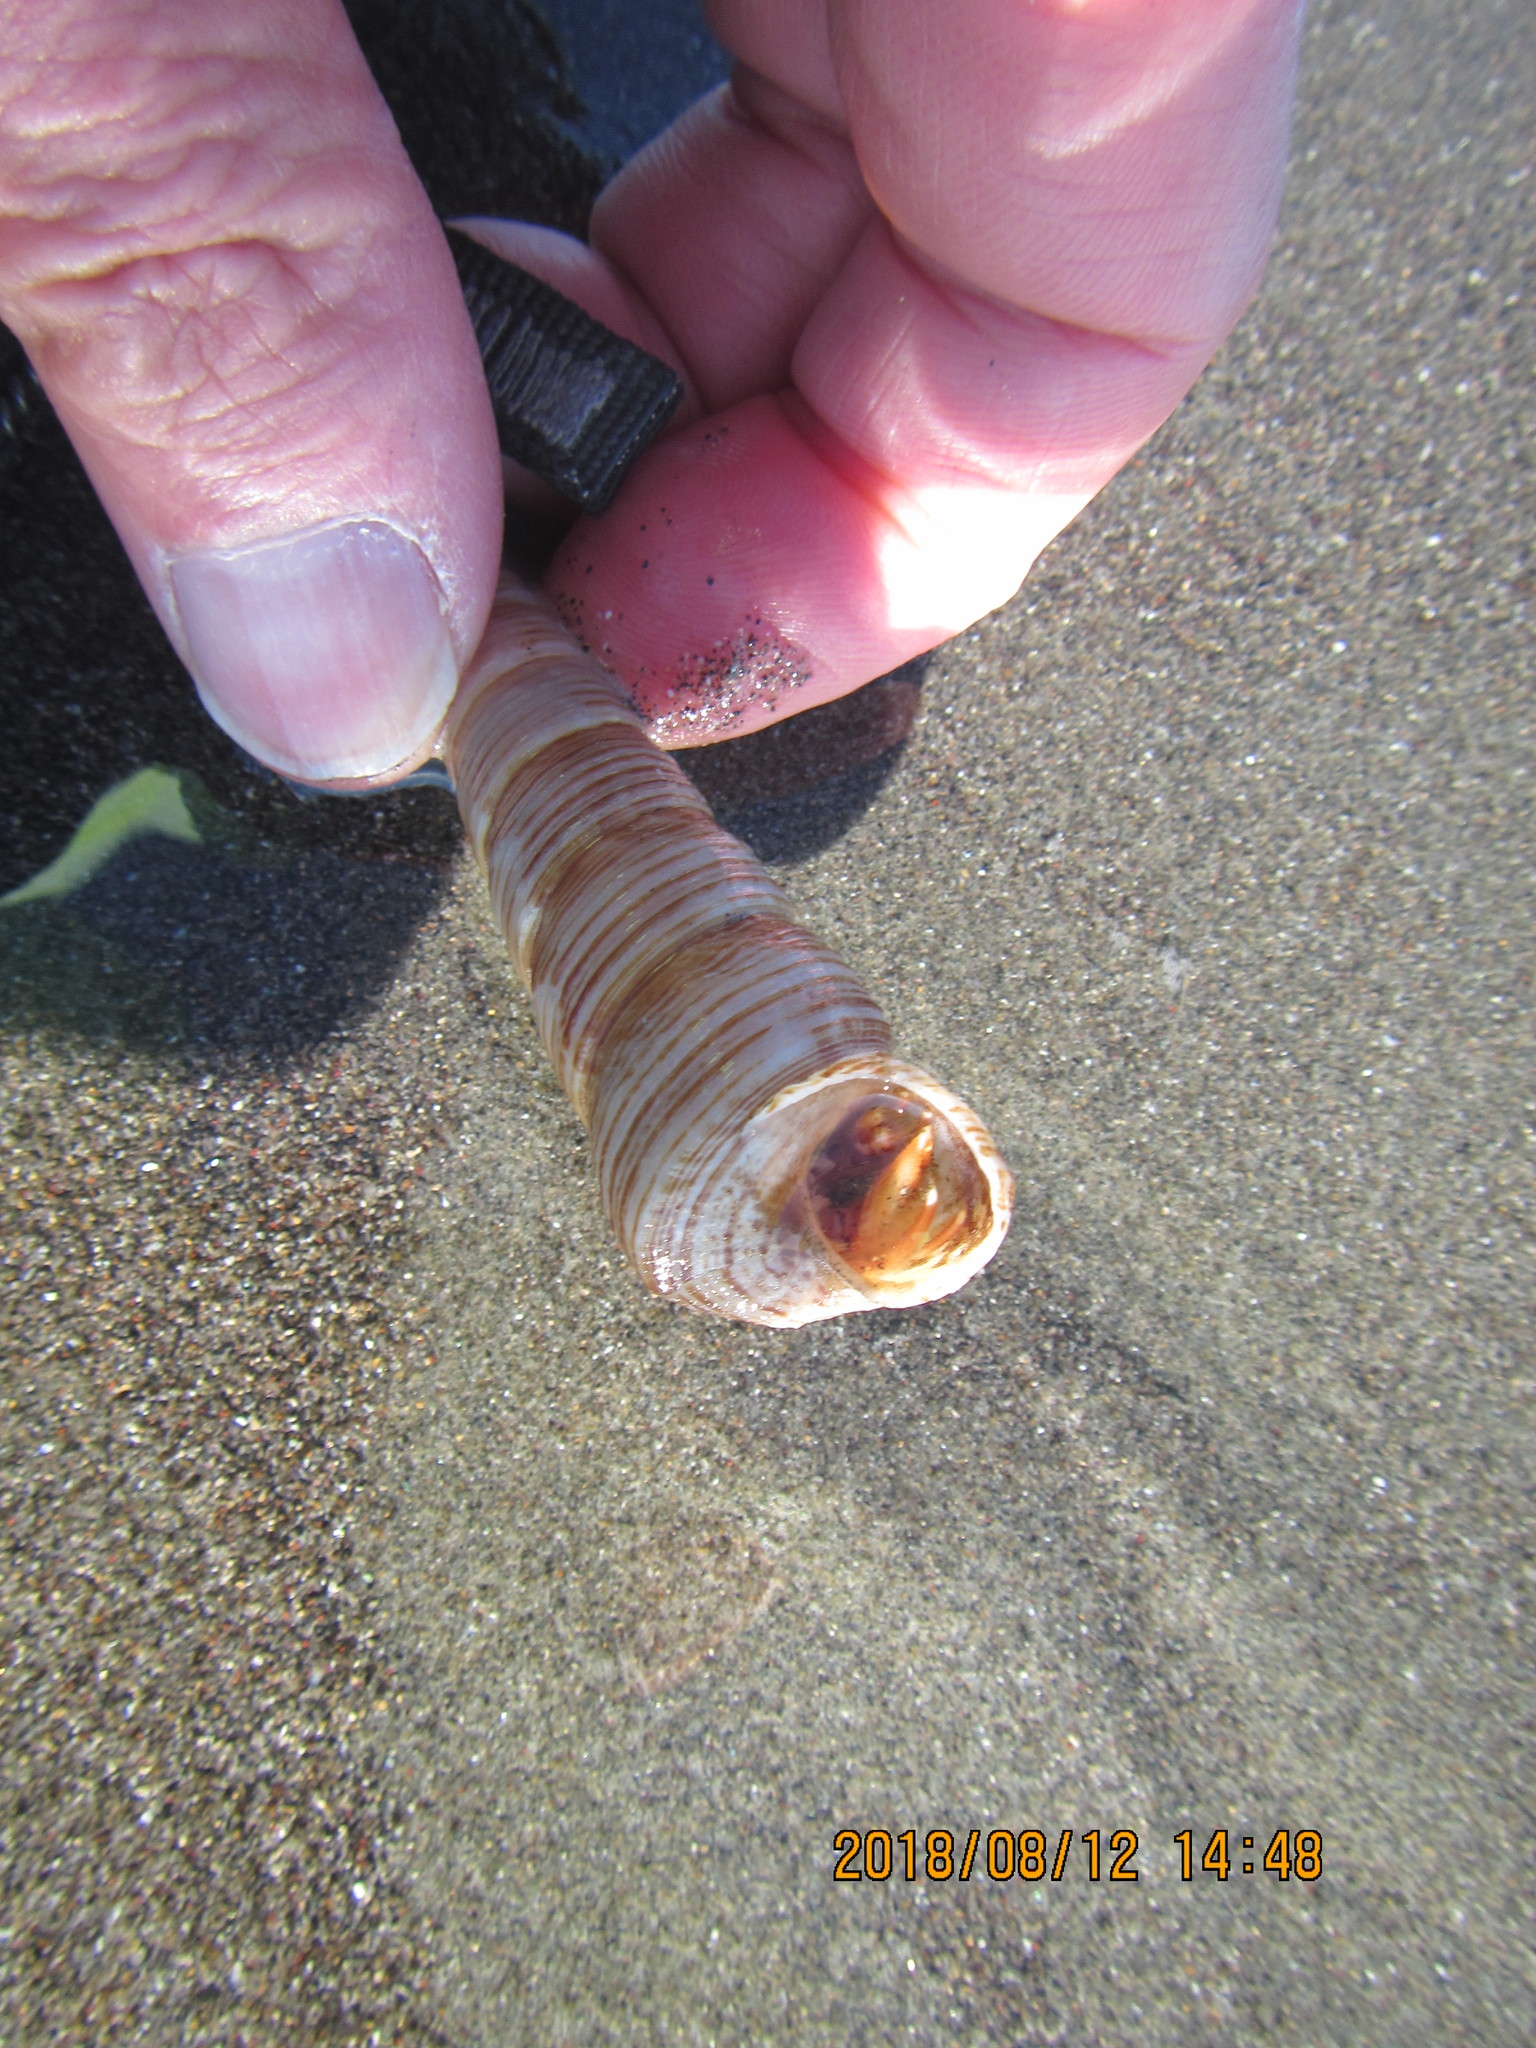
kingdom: Animalia
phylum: Mollusca
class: Gastropoda
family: Turritellidae
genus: Zeacolpus
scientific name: Zeacolpus vittatus
